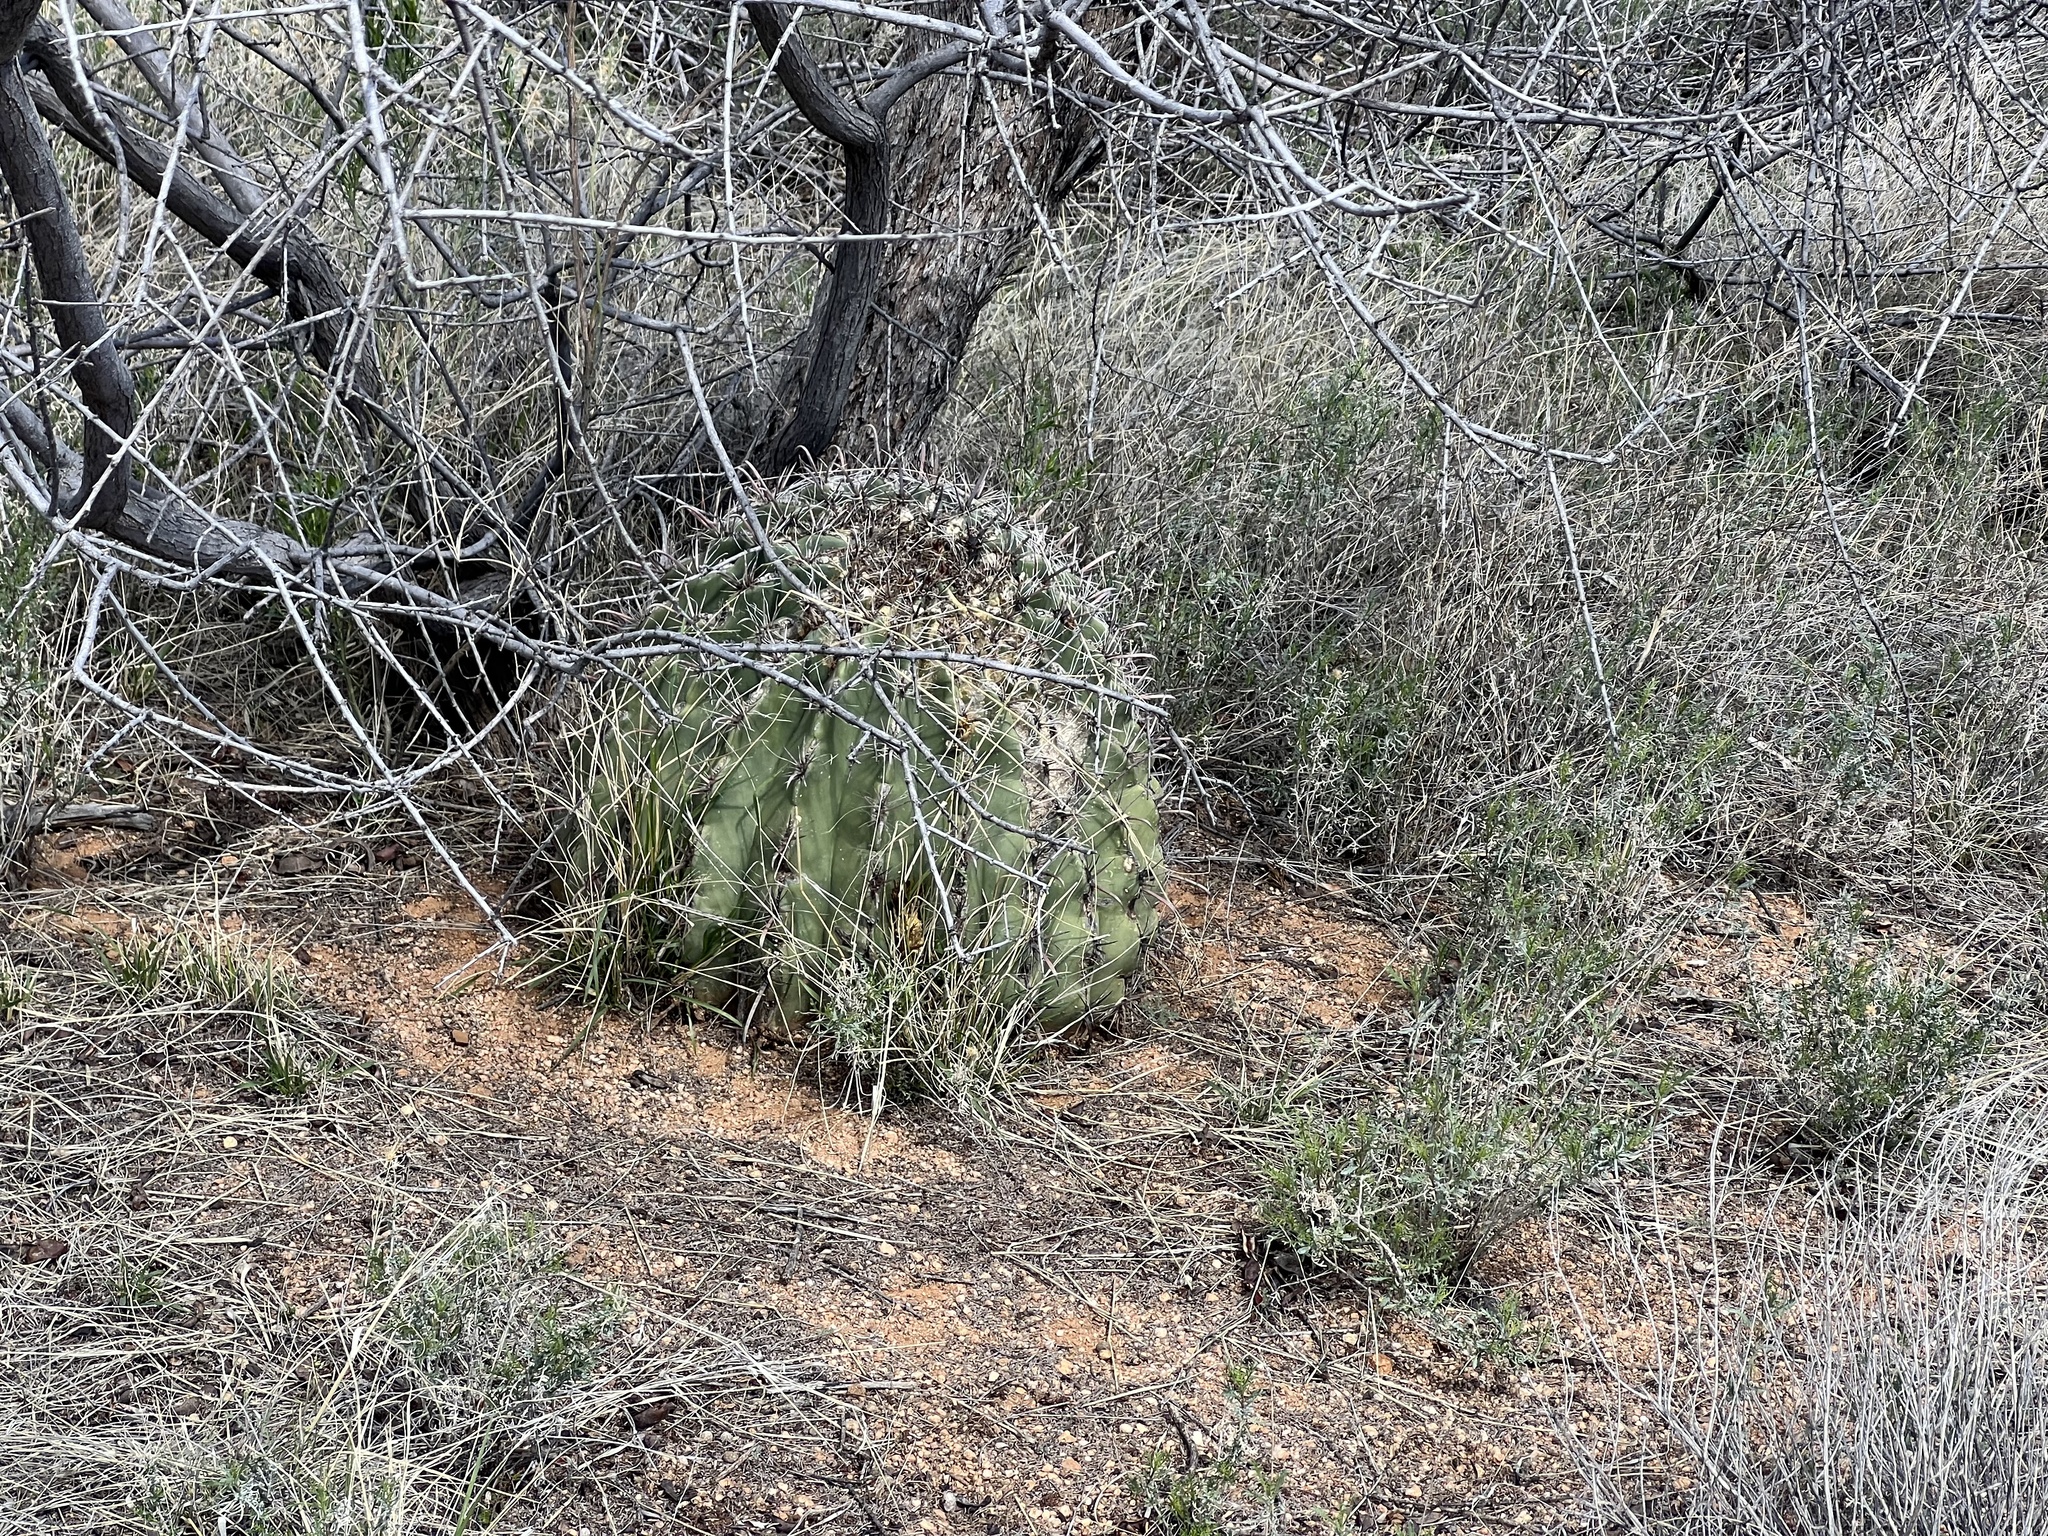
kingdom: Plantae
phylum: Tracheophyta
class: Magnoliopsida
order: Caryophyllales
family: Cactaceae
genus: Ferocactus
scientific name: Ferocactus wislizeni
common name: Candy barrel cactus
